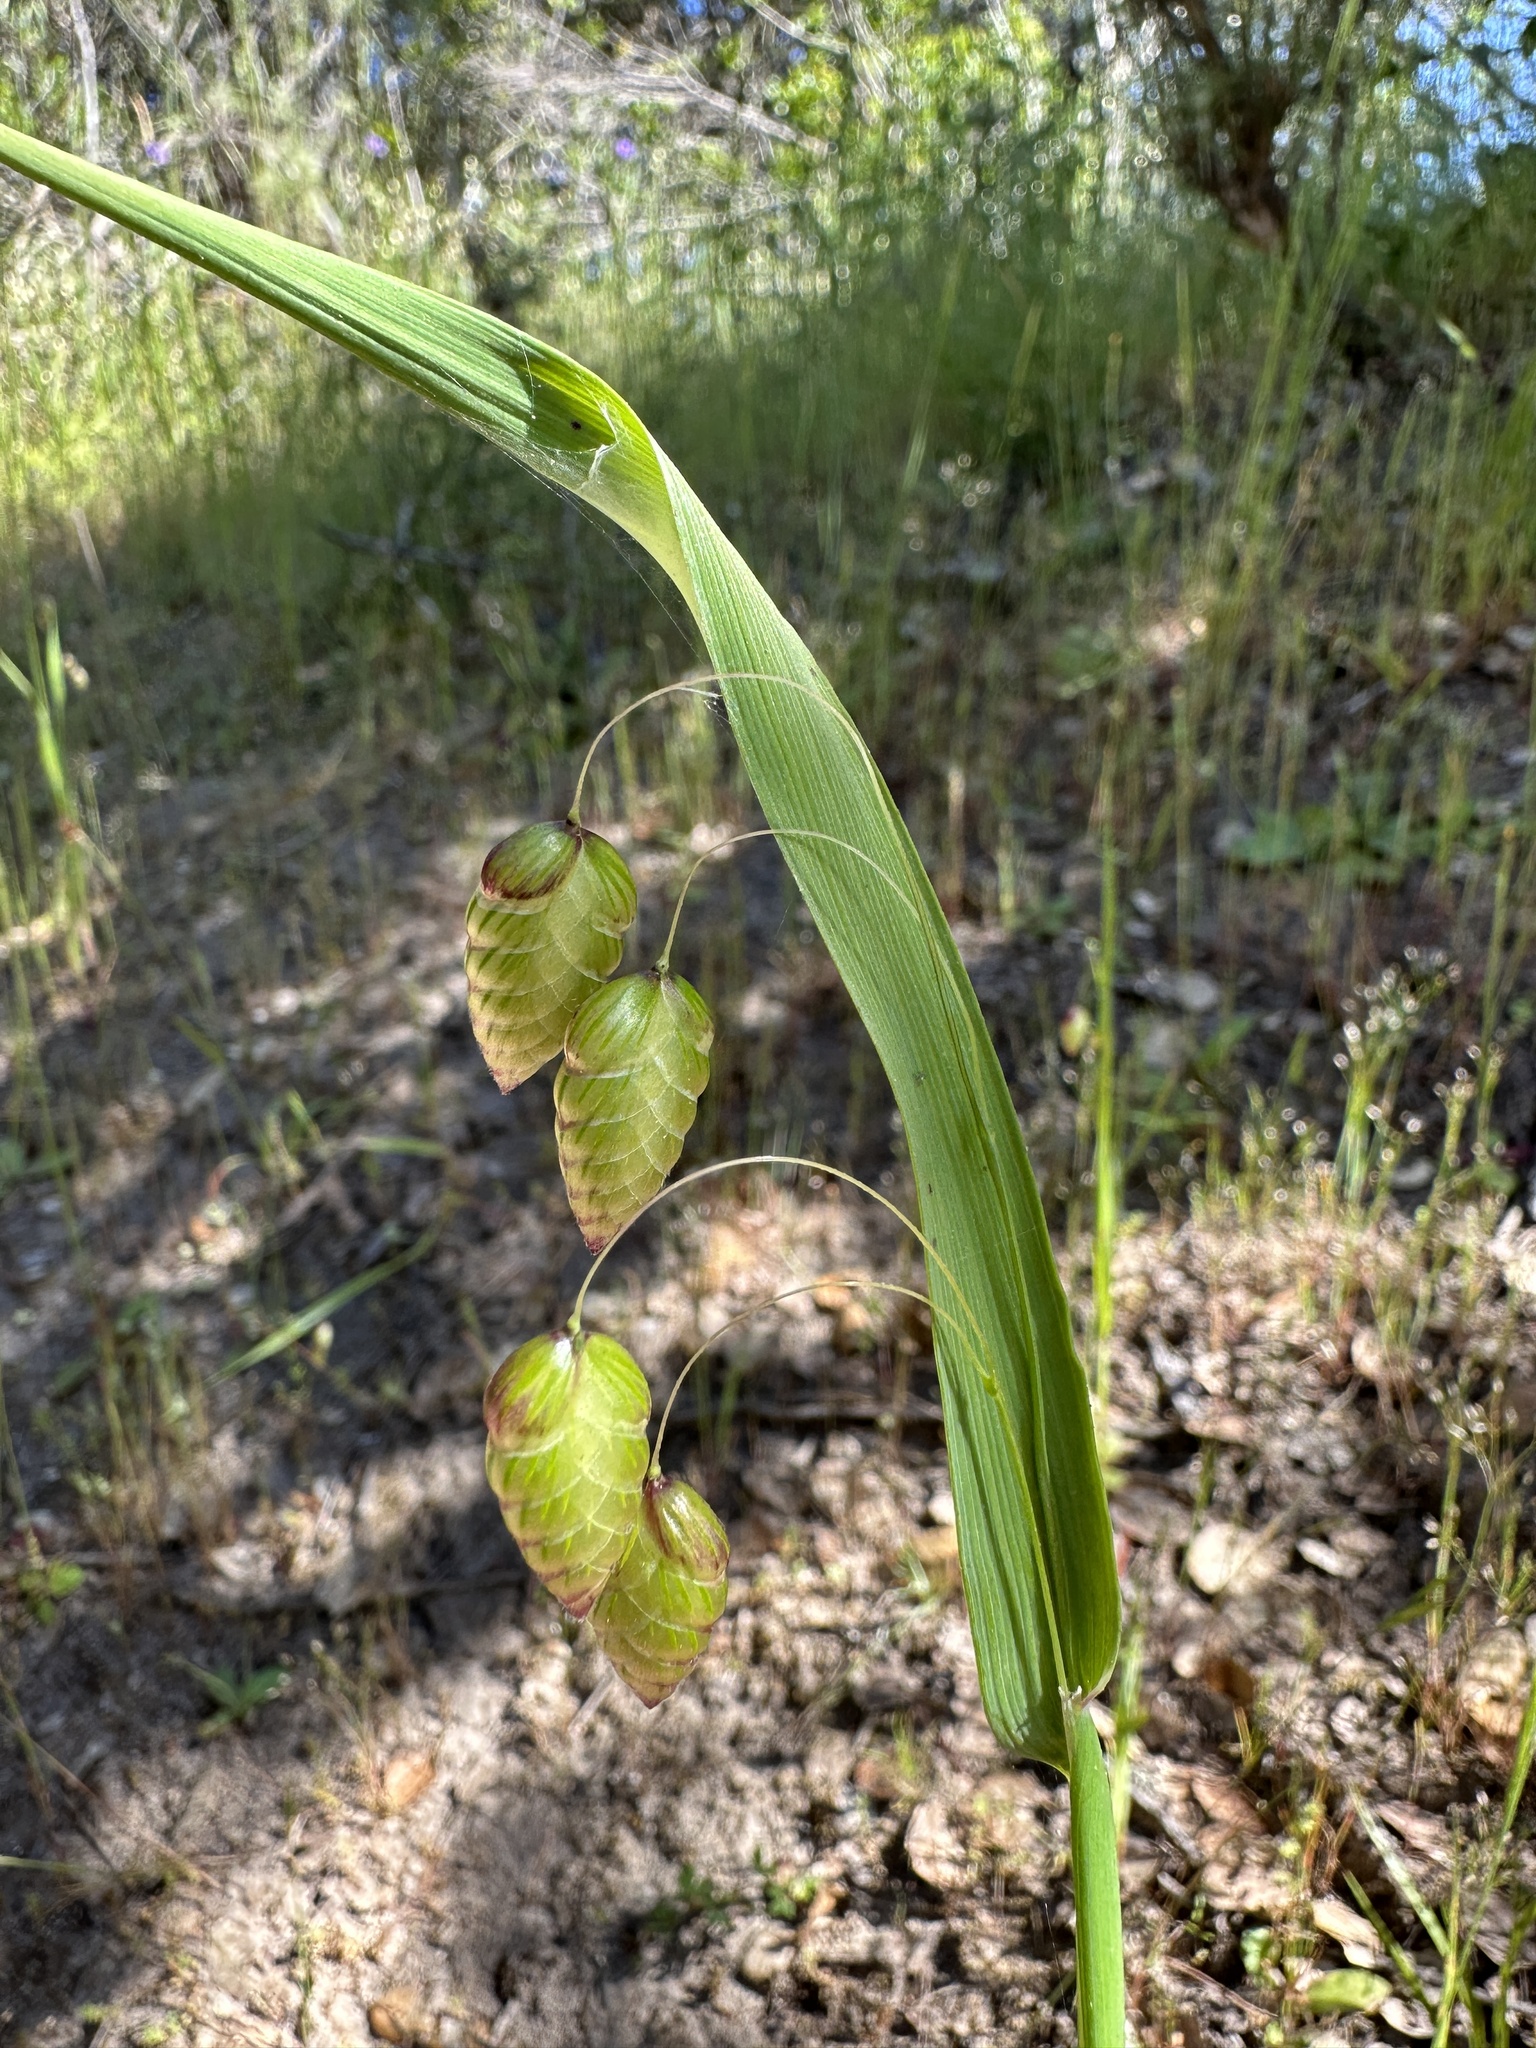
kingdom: Plantae
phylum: Tracheophyta
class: Liliopsida
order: Poales
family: Poaceae
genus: Briza
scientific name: Briza maxima
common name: Big quakinggrass
